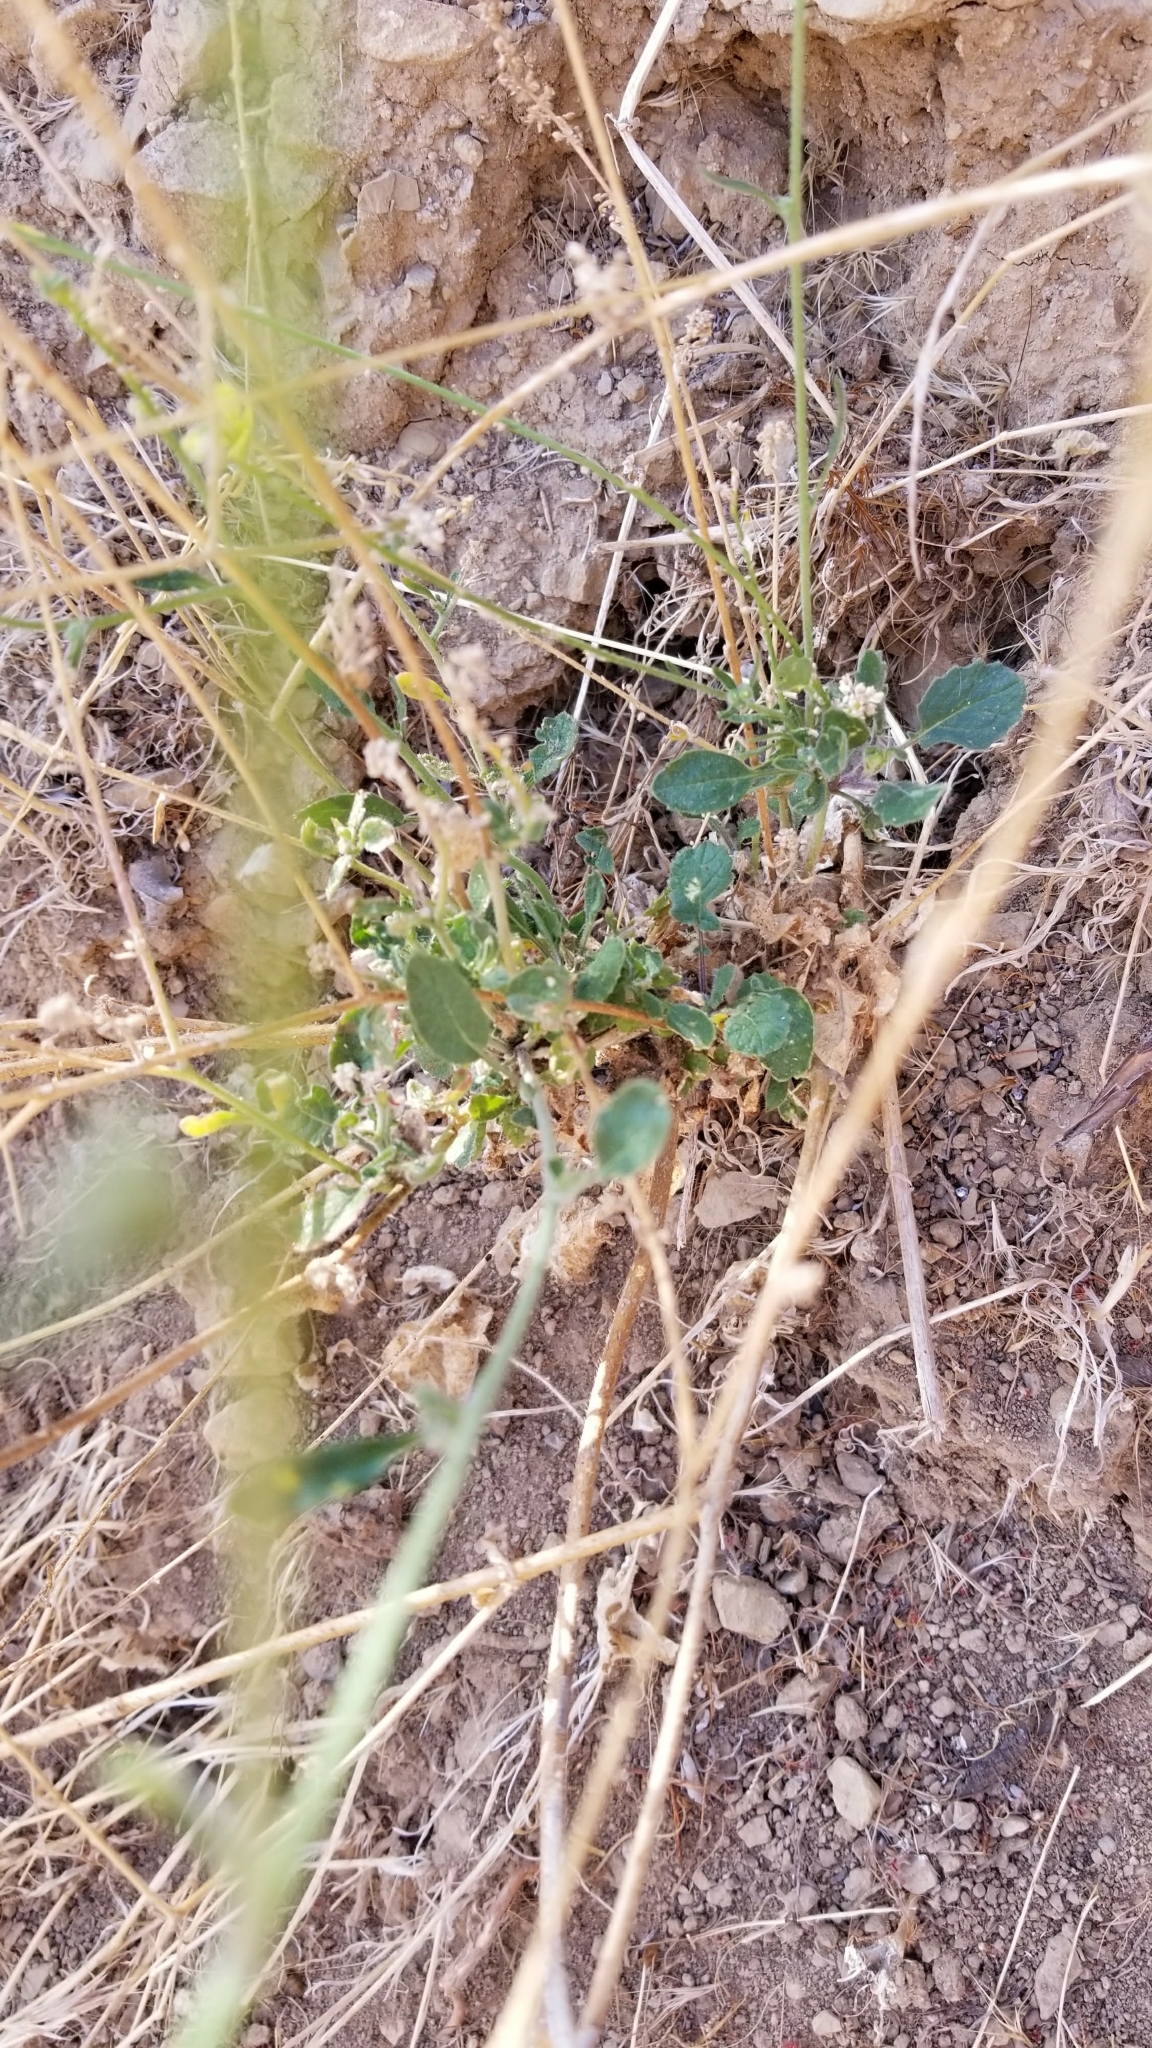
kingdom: Plantae
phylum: Tracheophyta
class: Magnoliopsida
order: Brassicales
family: Brassicaceae
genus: Hirschfeldia
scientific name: Hirschfeldia incana
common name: Hoary mustard
